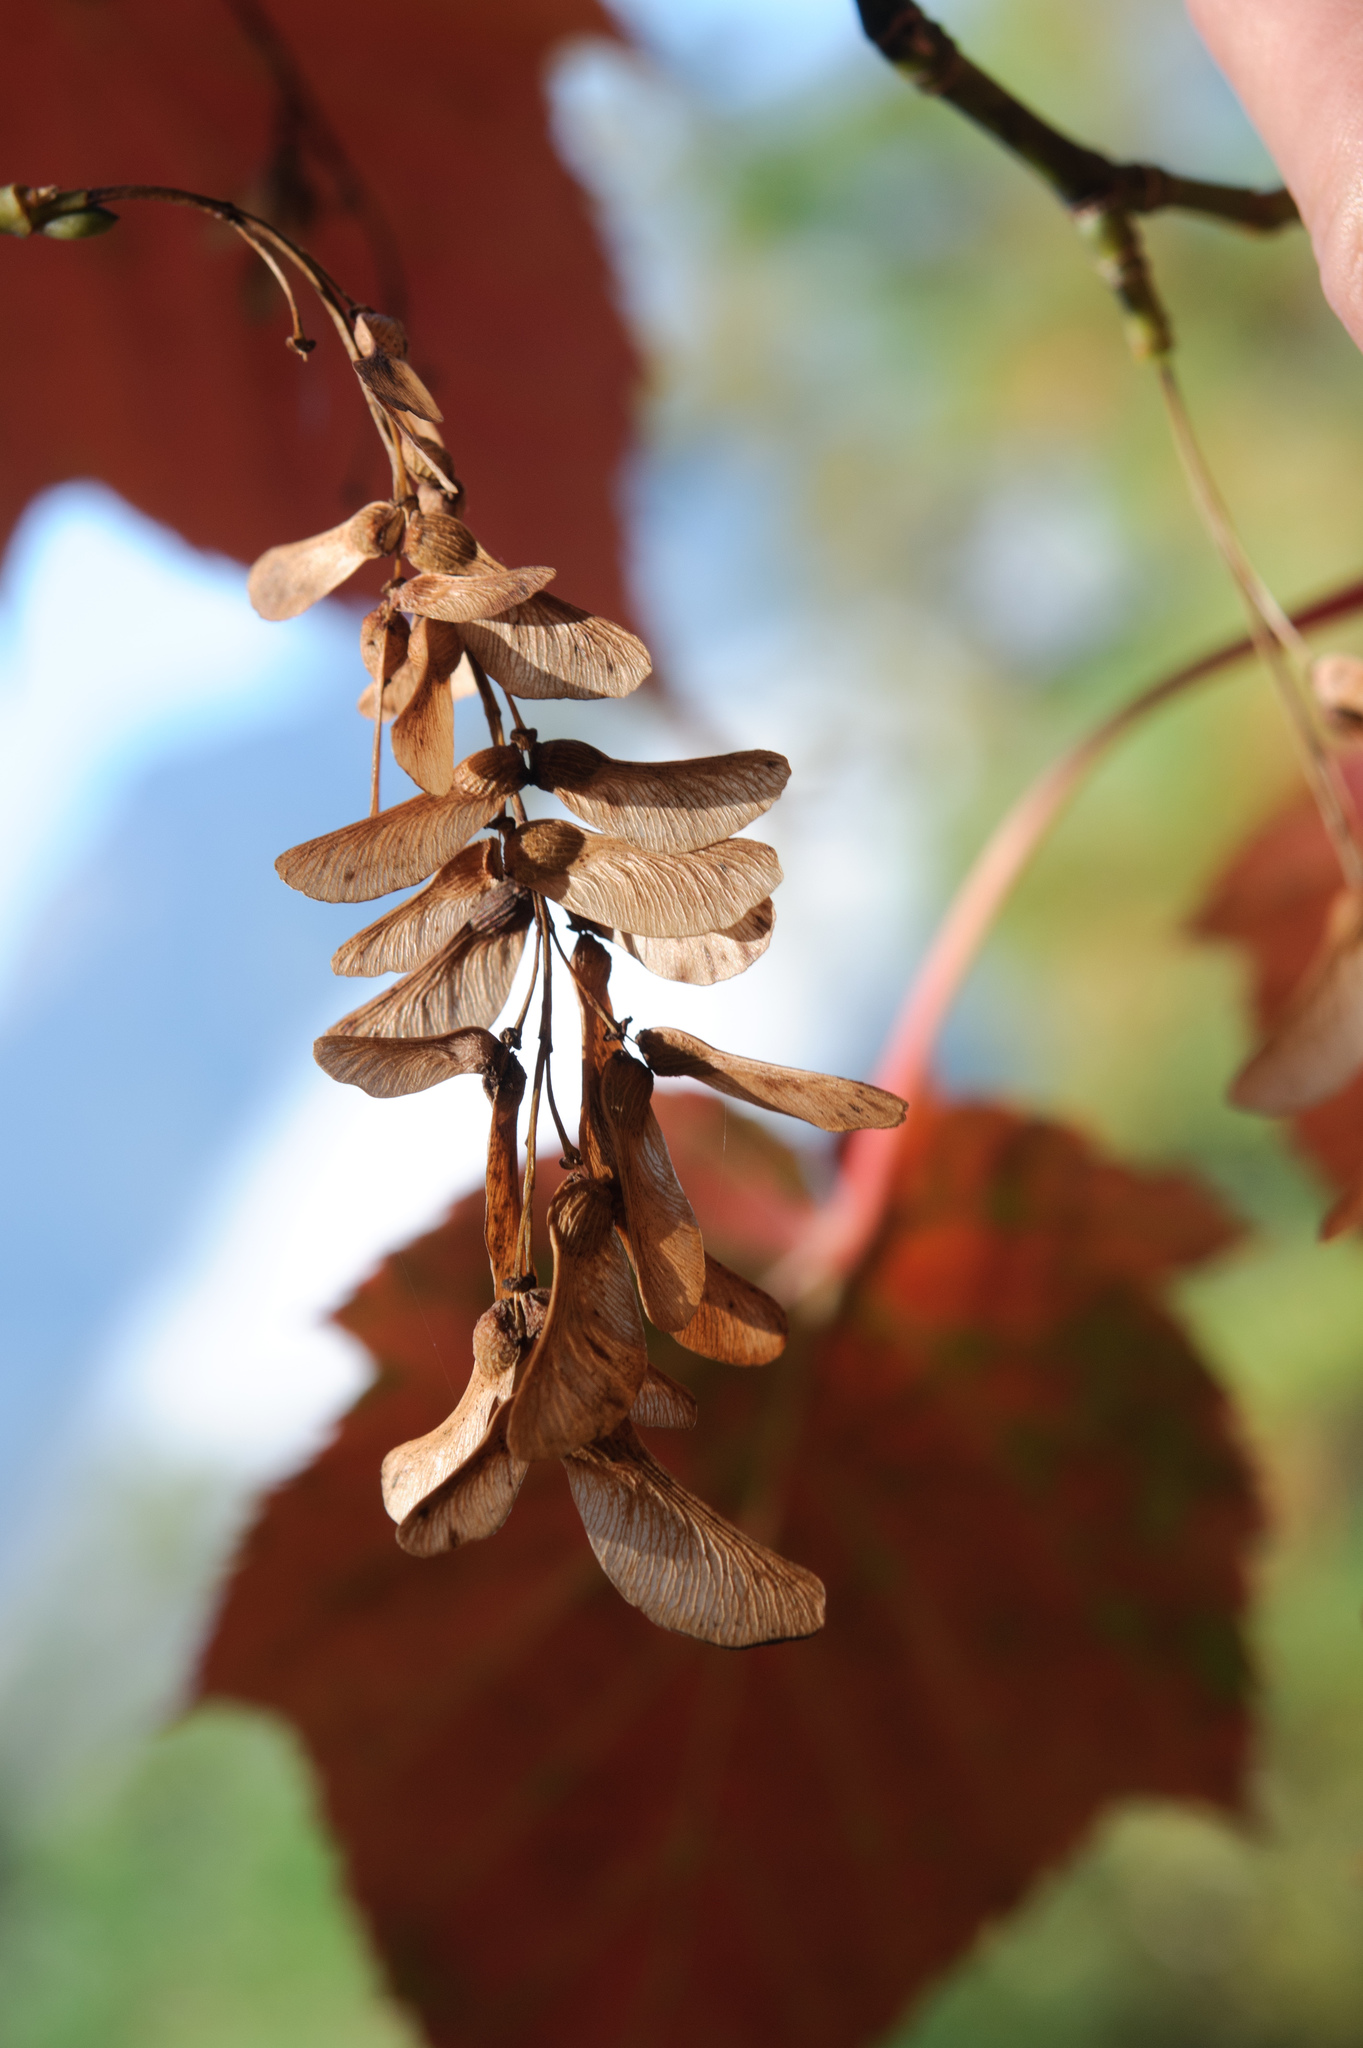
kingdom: Plantae
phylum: Tracheophyta
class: Magnoliopsida
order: Sapindales
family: Sapindaceae
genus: Acer
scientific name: Acer caudatifolium
